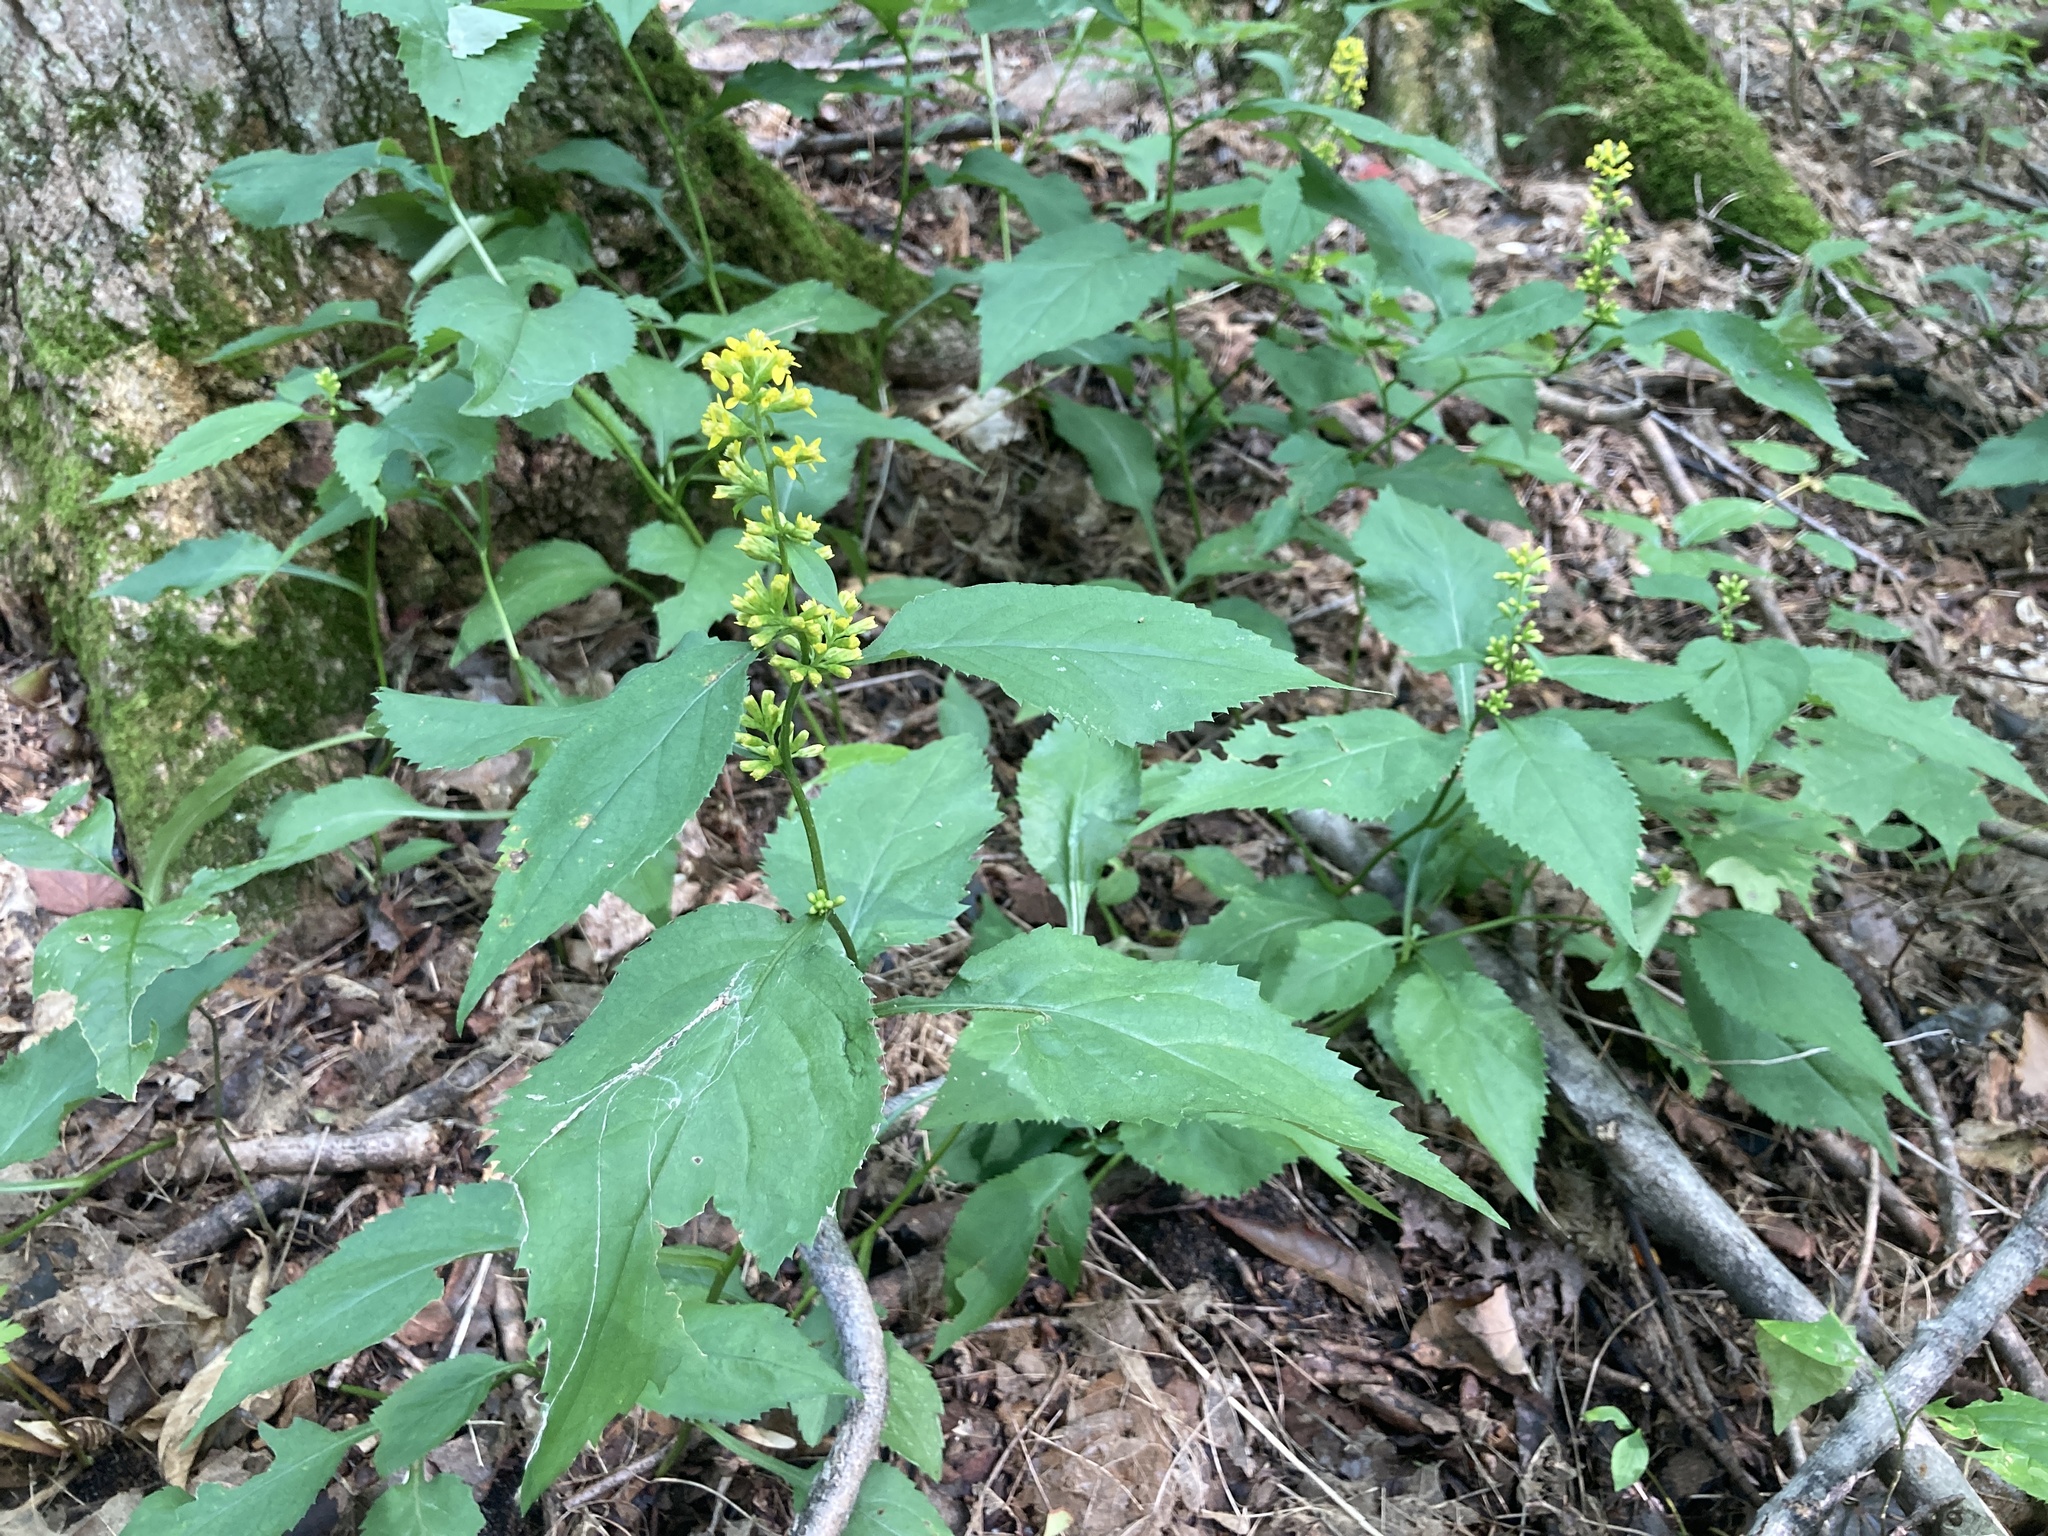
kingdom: Plantae
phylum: Tracheophyta
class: Magnoliopsida
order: Asterales
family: Asteraceae
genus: Solidago
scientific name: Solidago flexicaulis
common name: Zig-zag goldenrod
